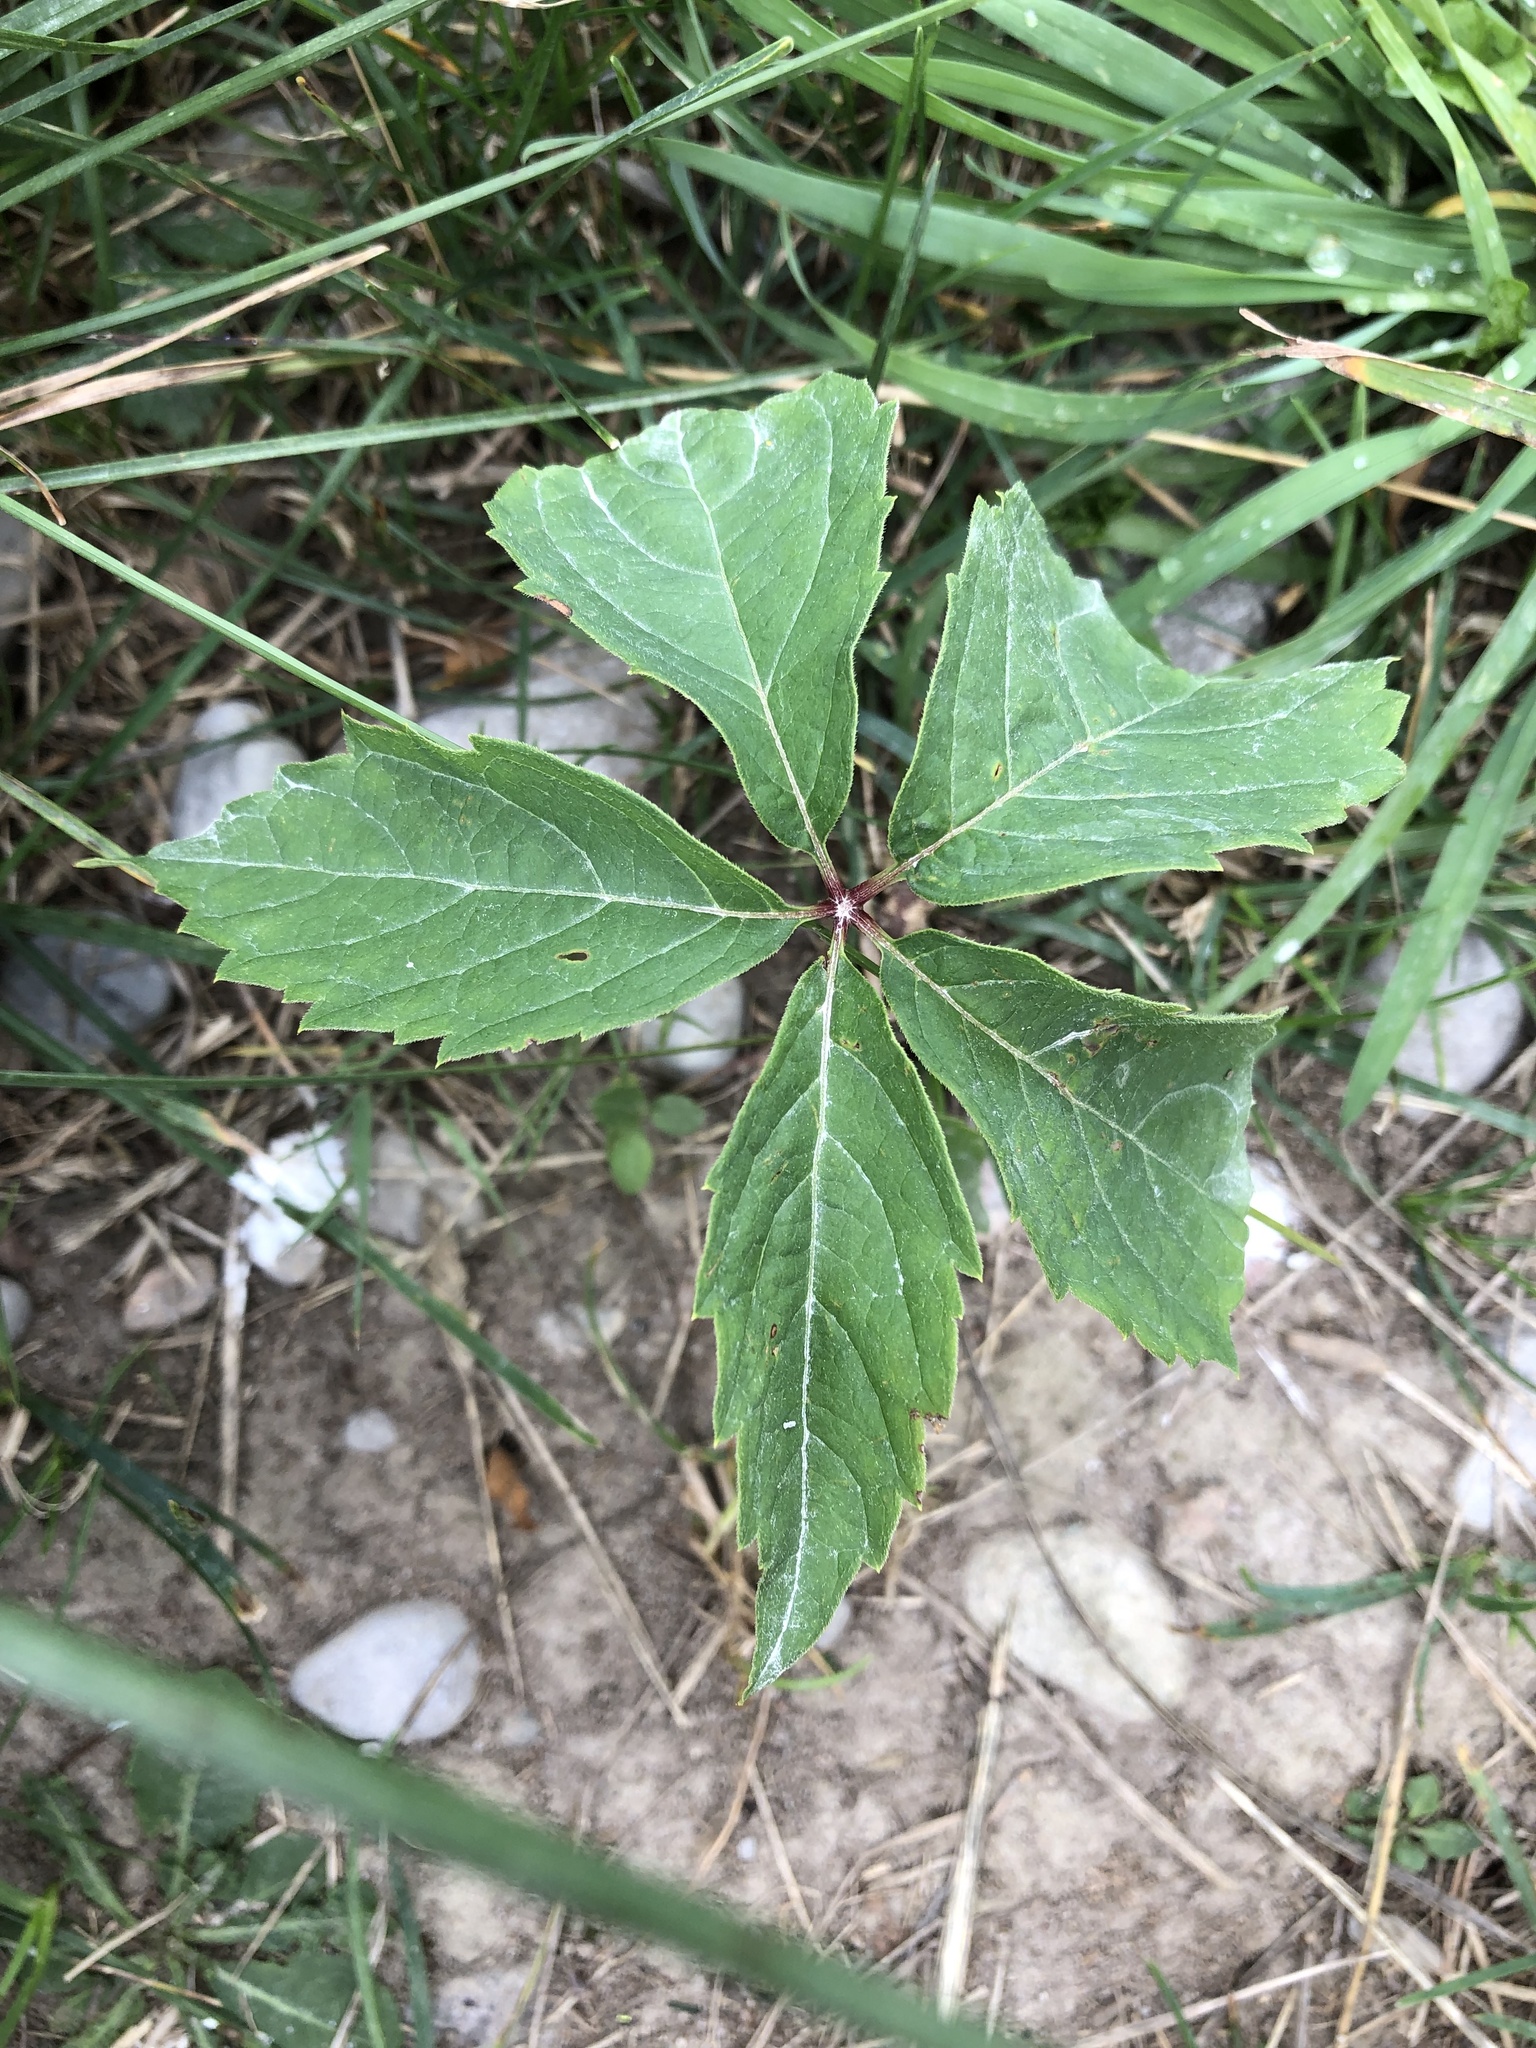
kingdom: Plantae
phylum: Tracheophyta
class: Magnoliopsida
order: Vitales
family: Vitaceae
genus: Parthenocissus
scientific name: Parthenocissus inserta
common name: False virginia-creeper
